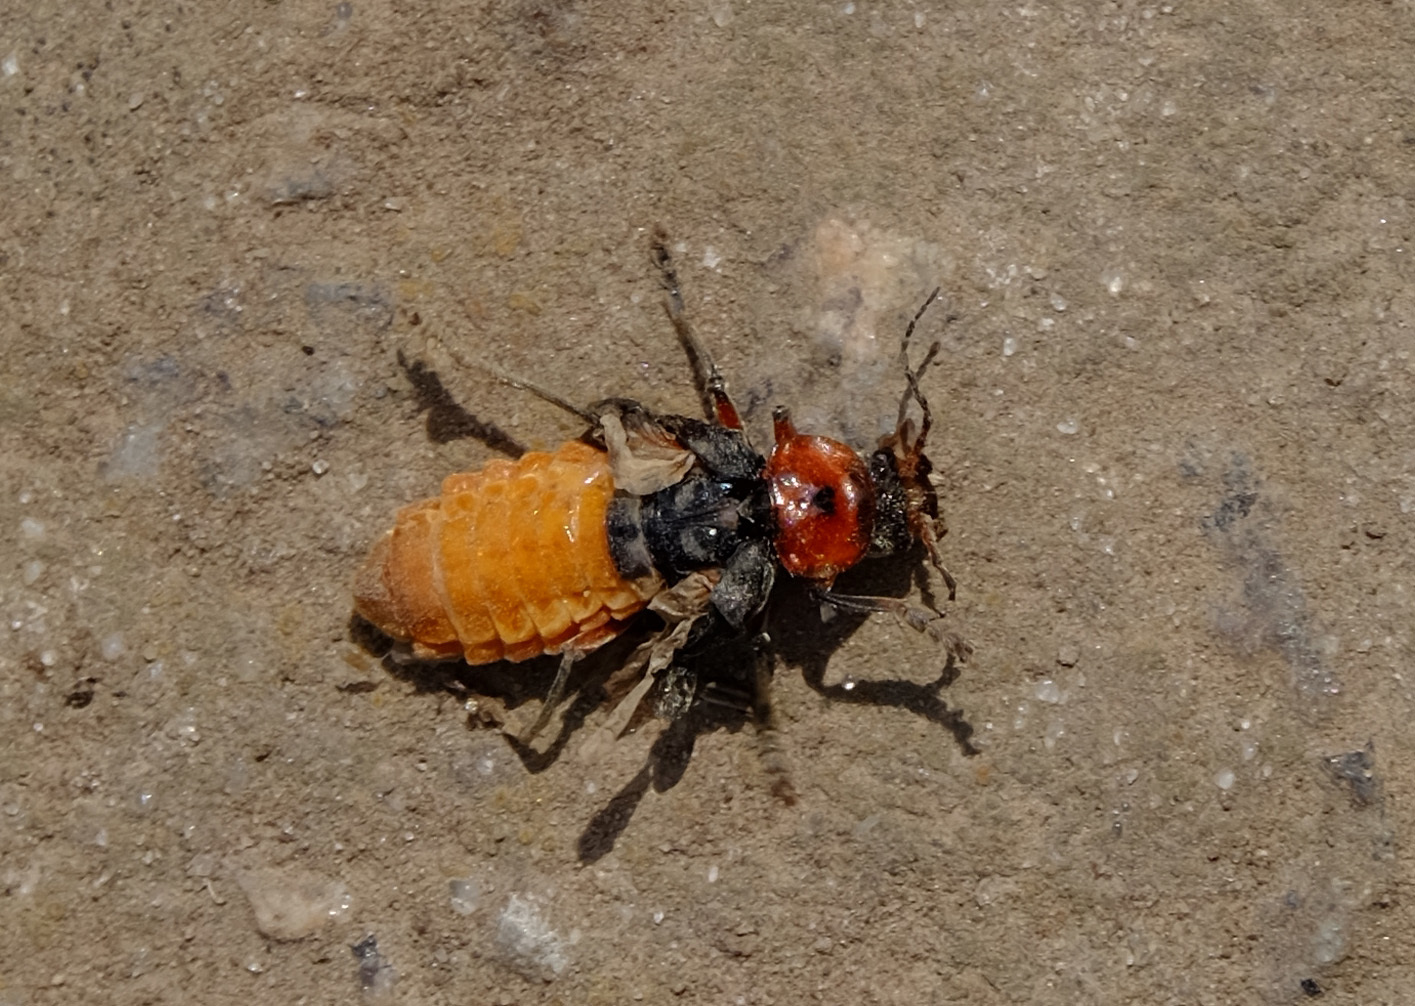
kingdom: Animalia
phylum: Arthropoda
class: Insecta
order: Coleoptera
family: Cantharidae
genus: Cantharis
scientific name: Cantharis rustica
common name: Soldier beetle
